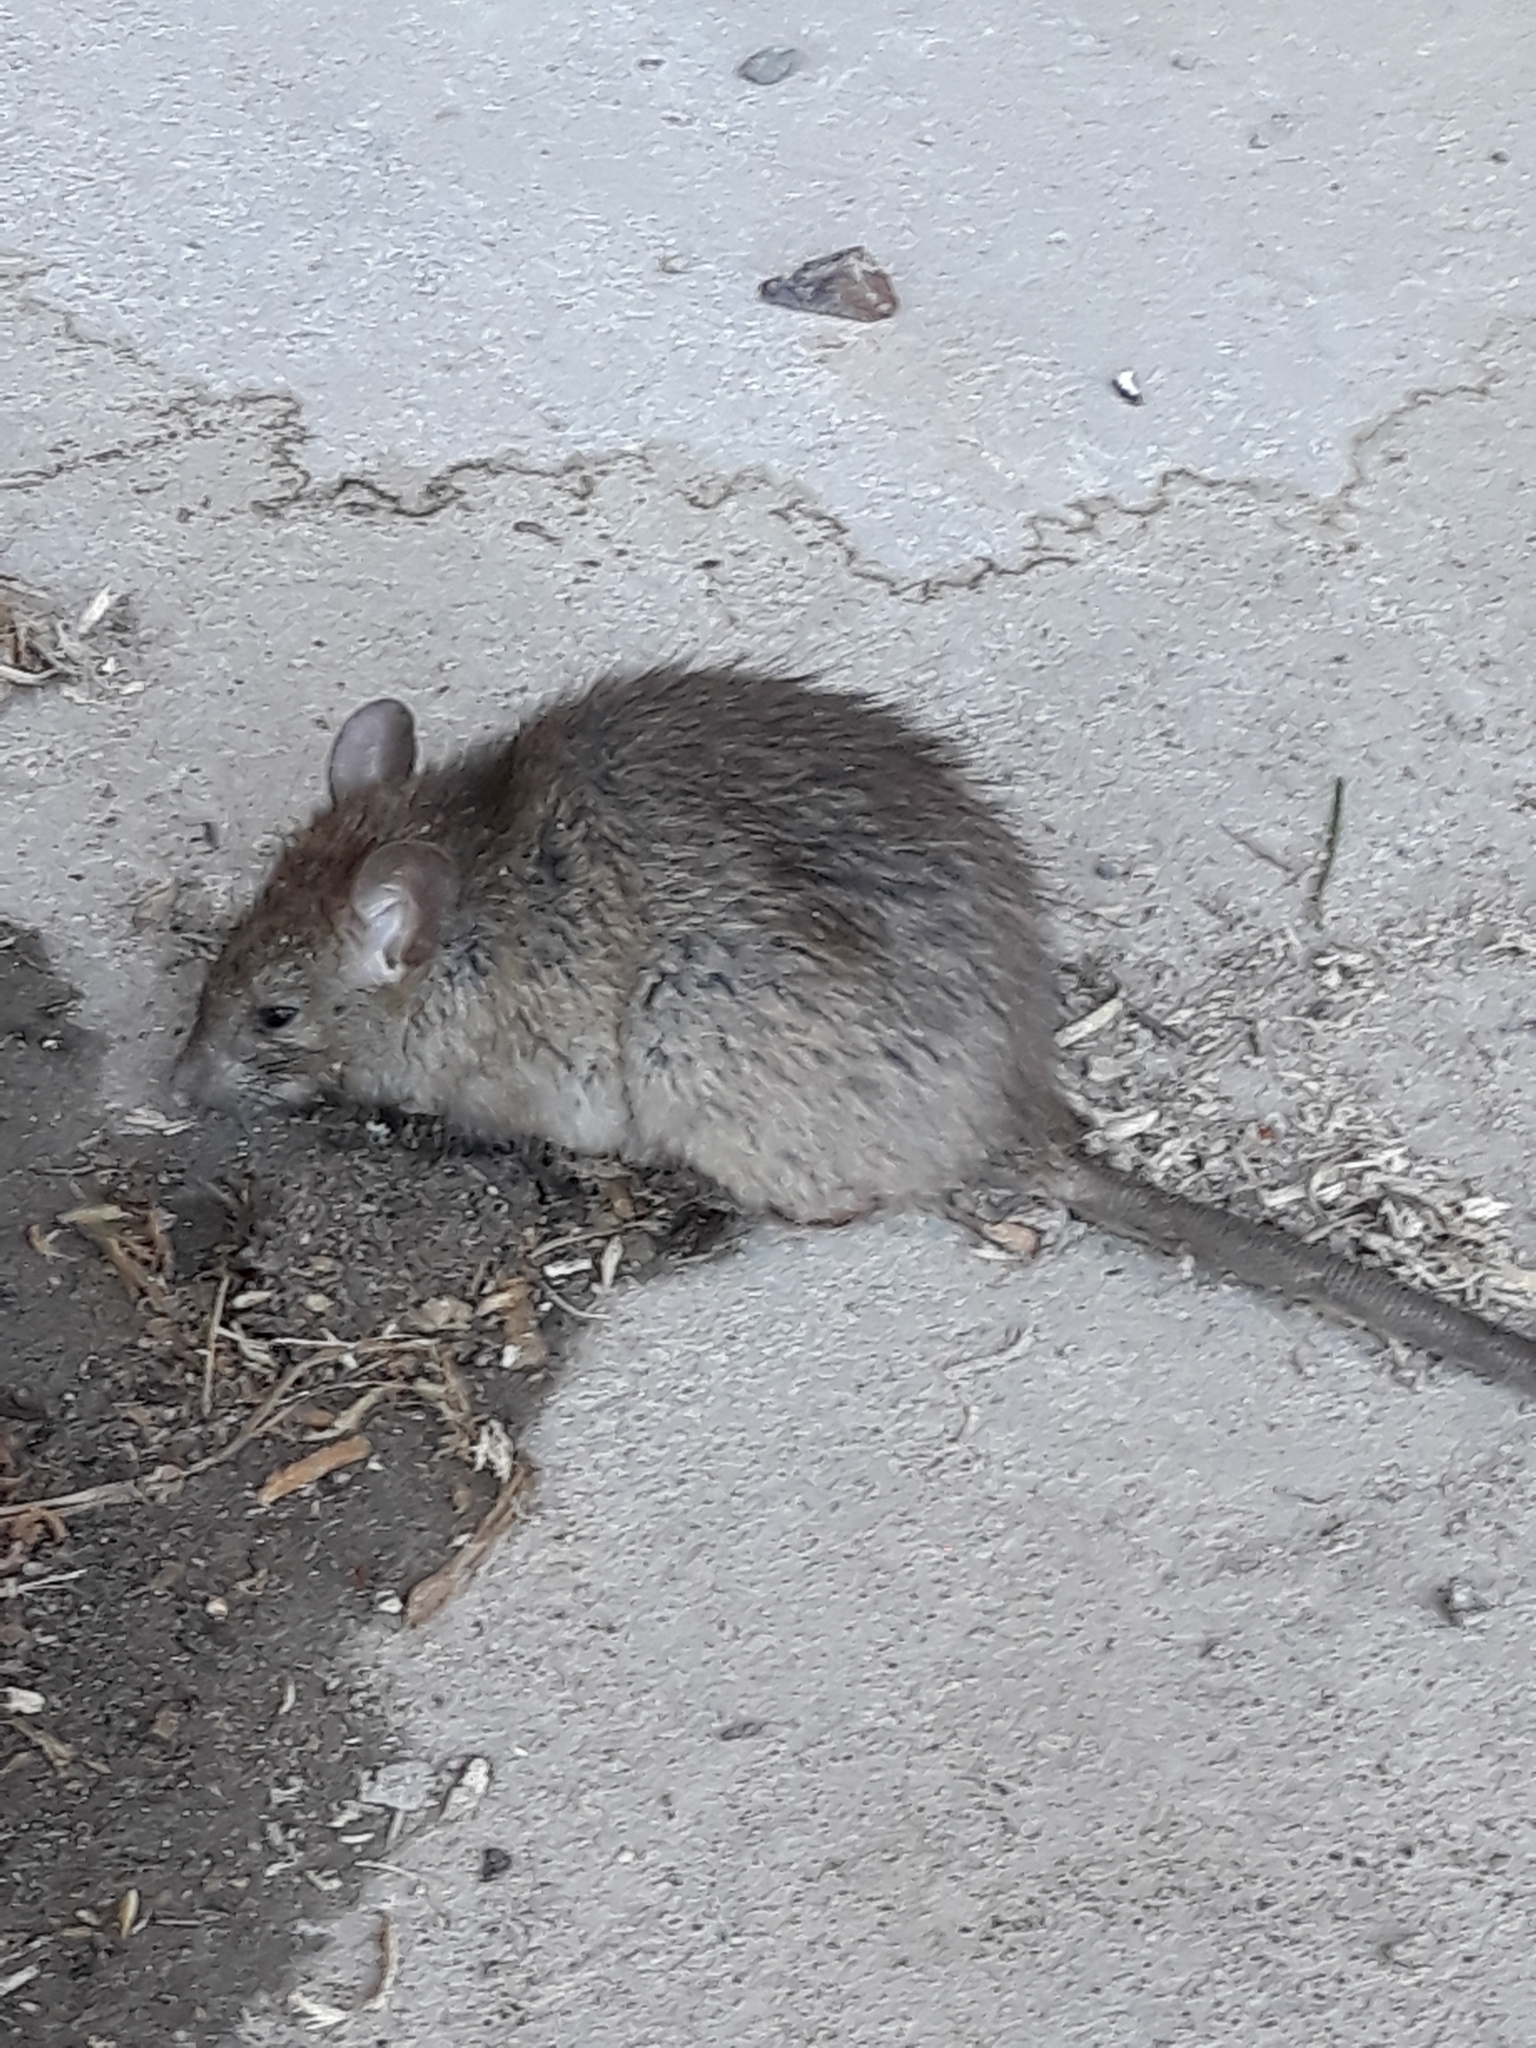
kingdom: Animalia
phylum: Chordata
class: Mammalia
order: Rodentia
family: Muridae
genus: Rattus
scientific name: Rattus rattus
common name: Black rat
